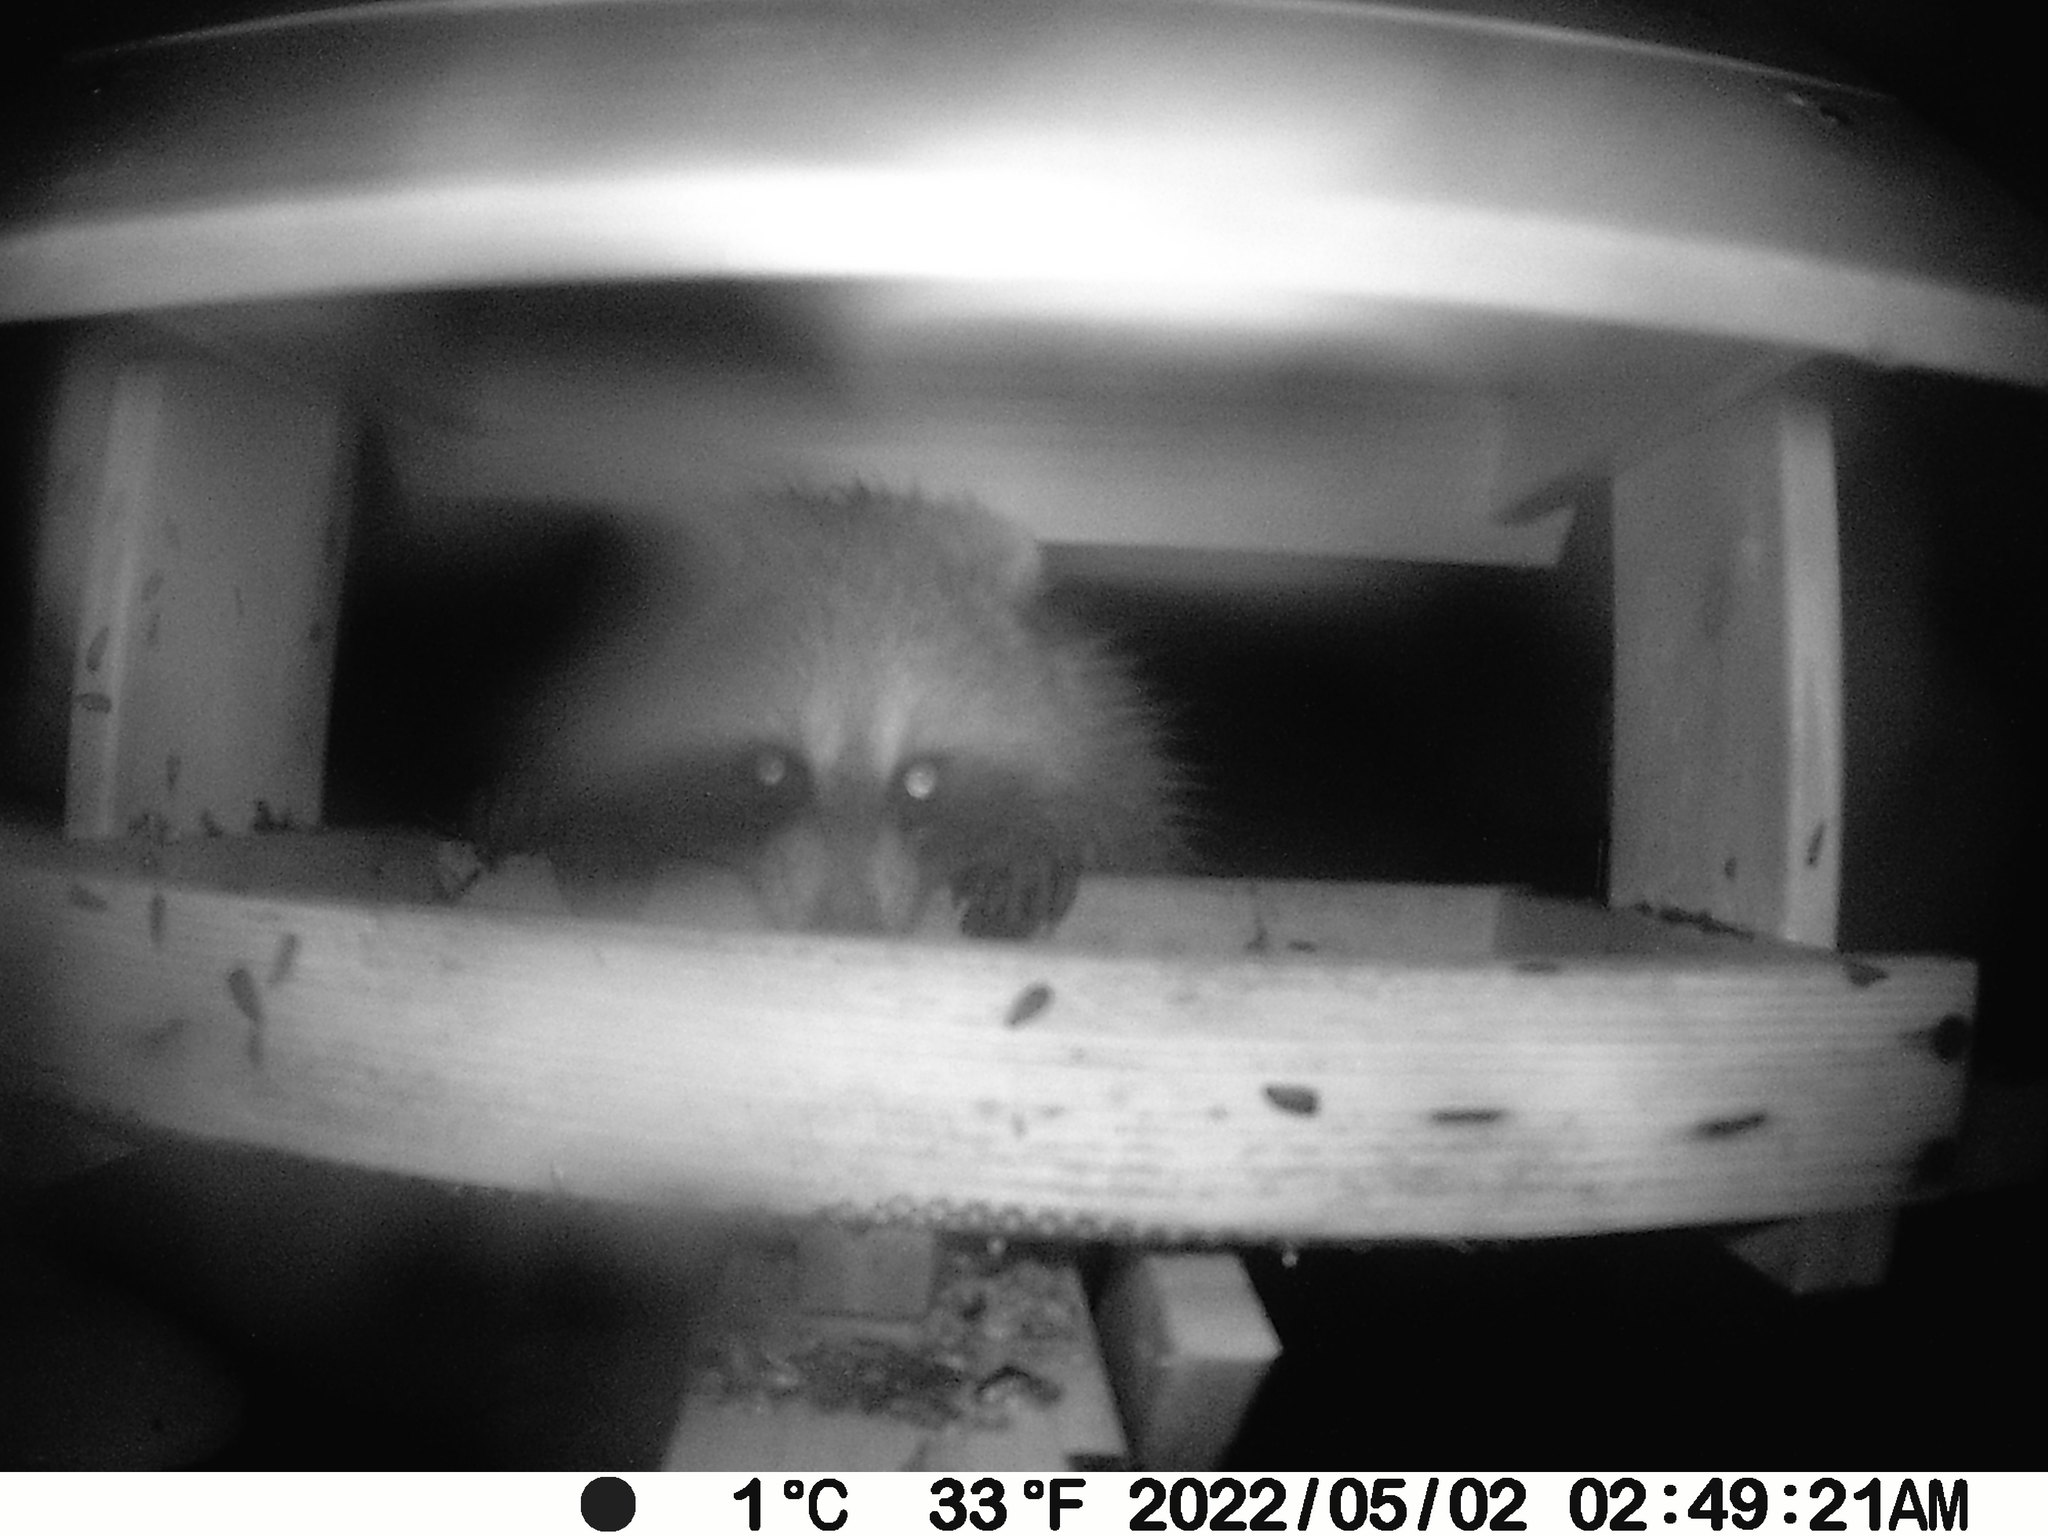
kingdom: Animalia
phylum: Chordata
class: Mammalia
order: Carnivora
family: Procyonidae
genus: Procyon
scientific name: Procyon lotor
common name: Raccoon
